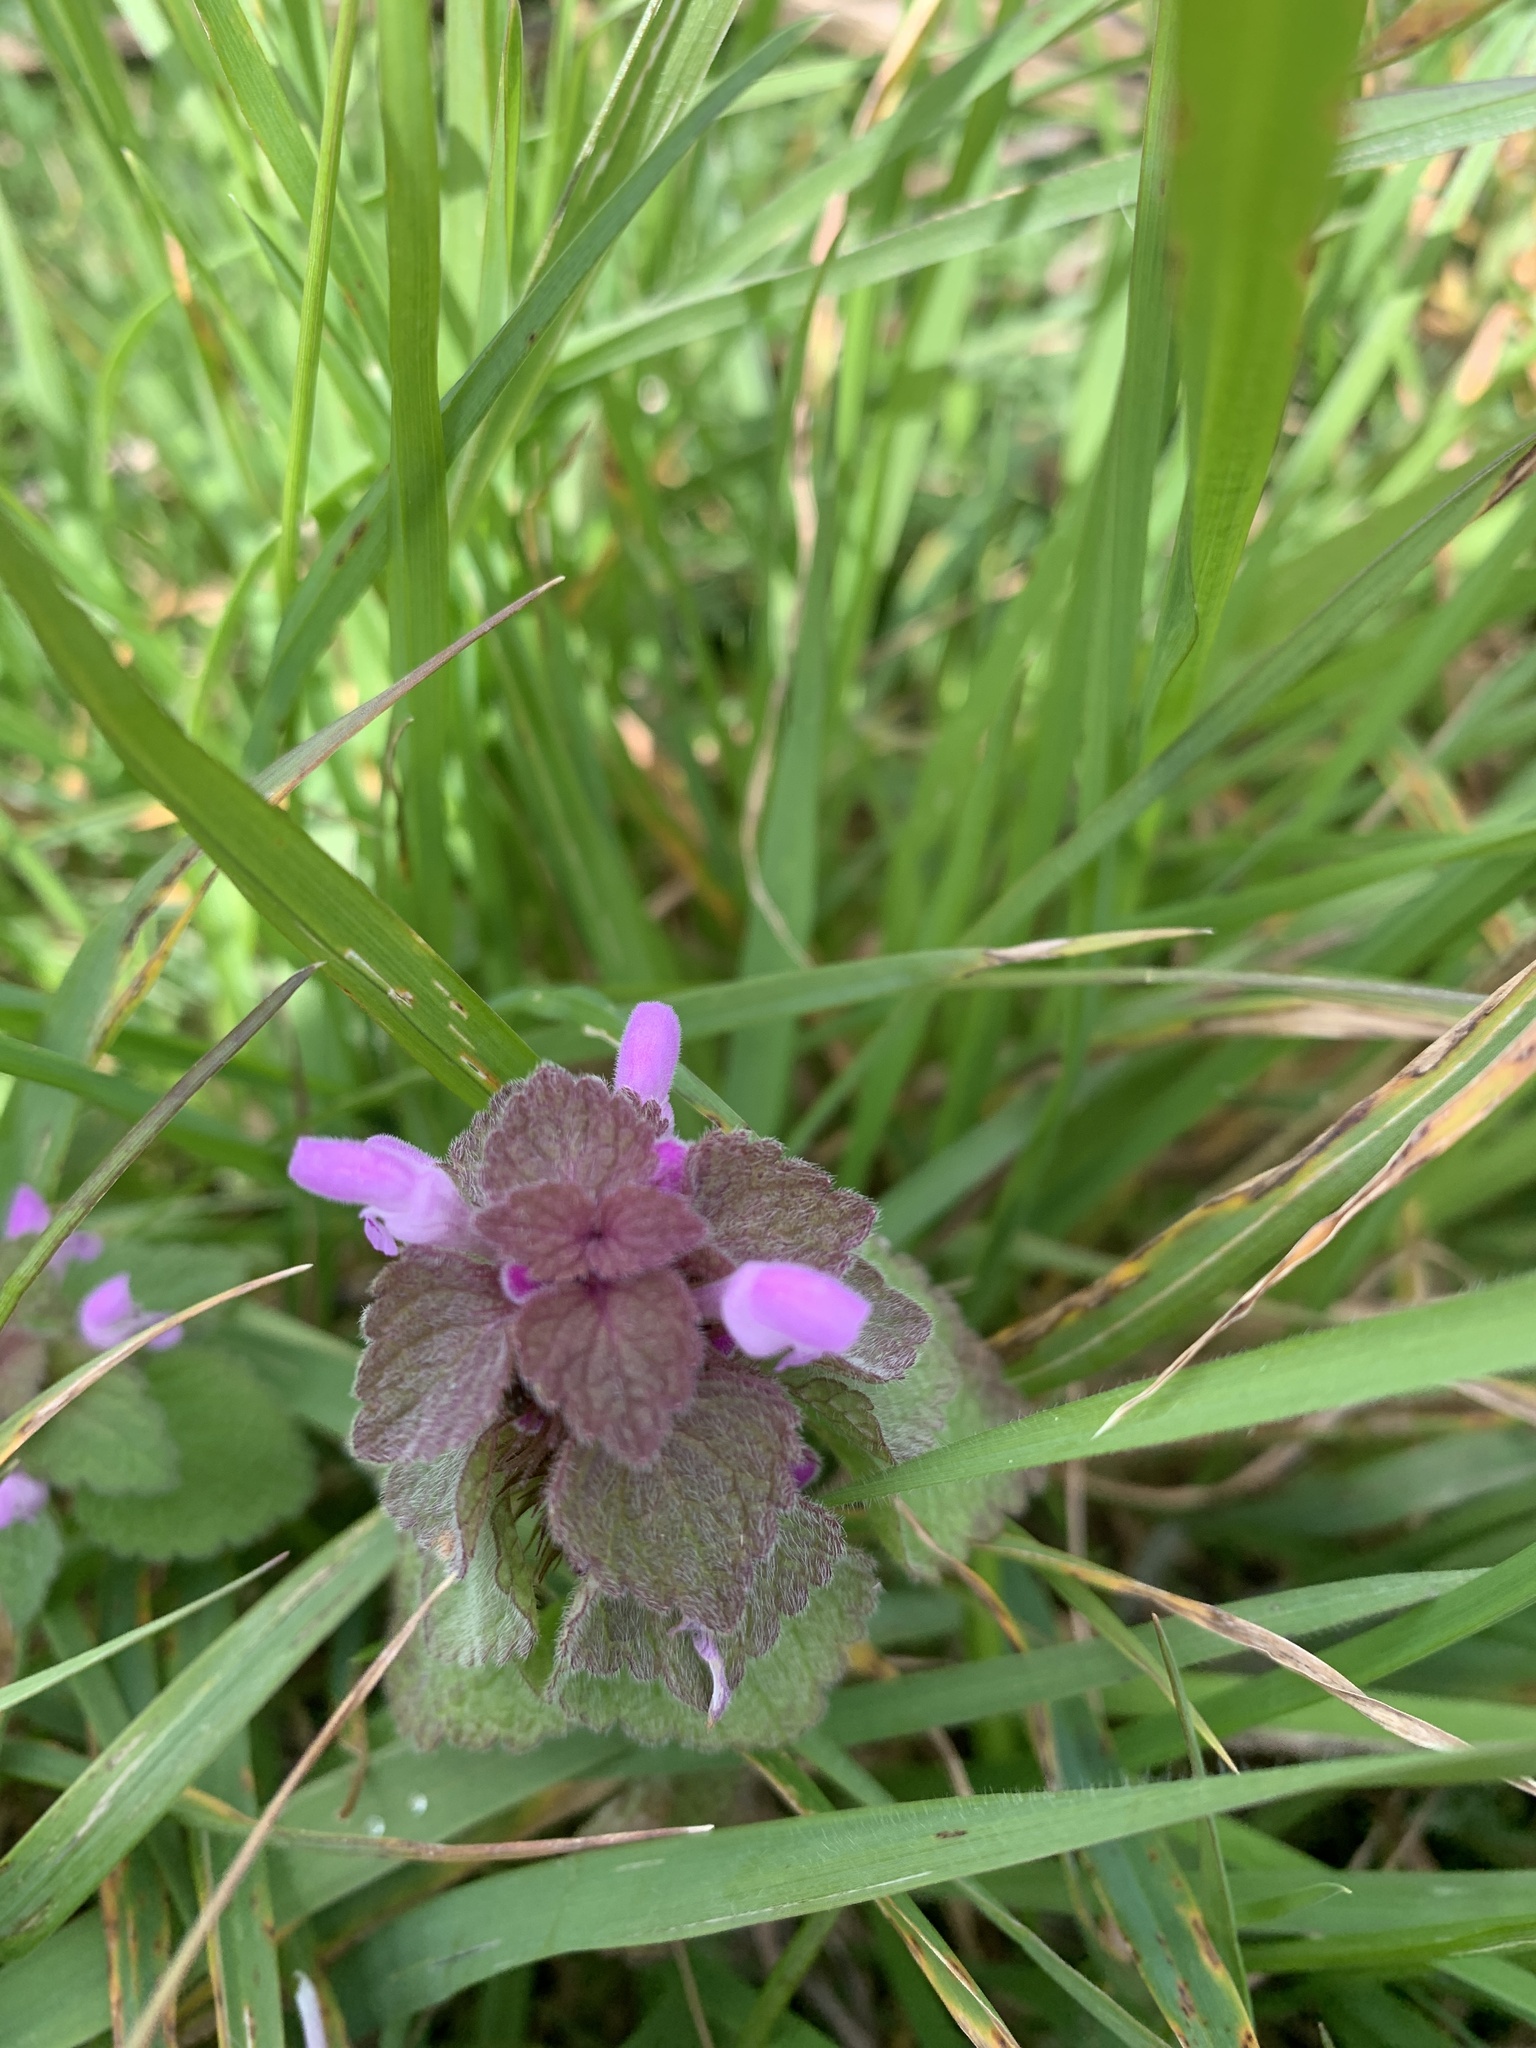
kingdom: Plantae
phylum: Tracheophyta
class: Magnoliopsida
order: Lamiales
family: Lamiaceae
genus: Lamium
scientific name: Lamium purpureum
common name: Red dead-nettle
